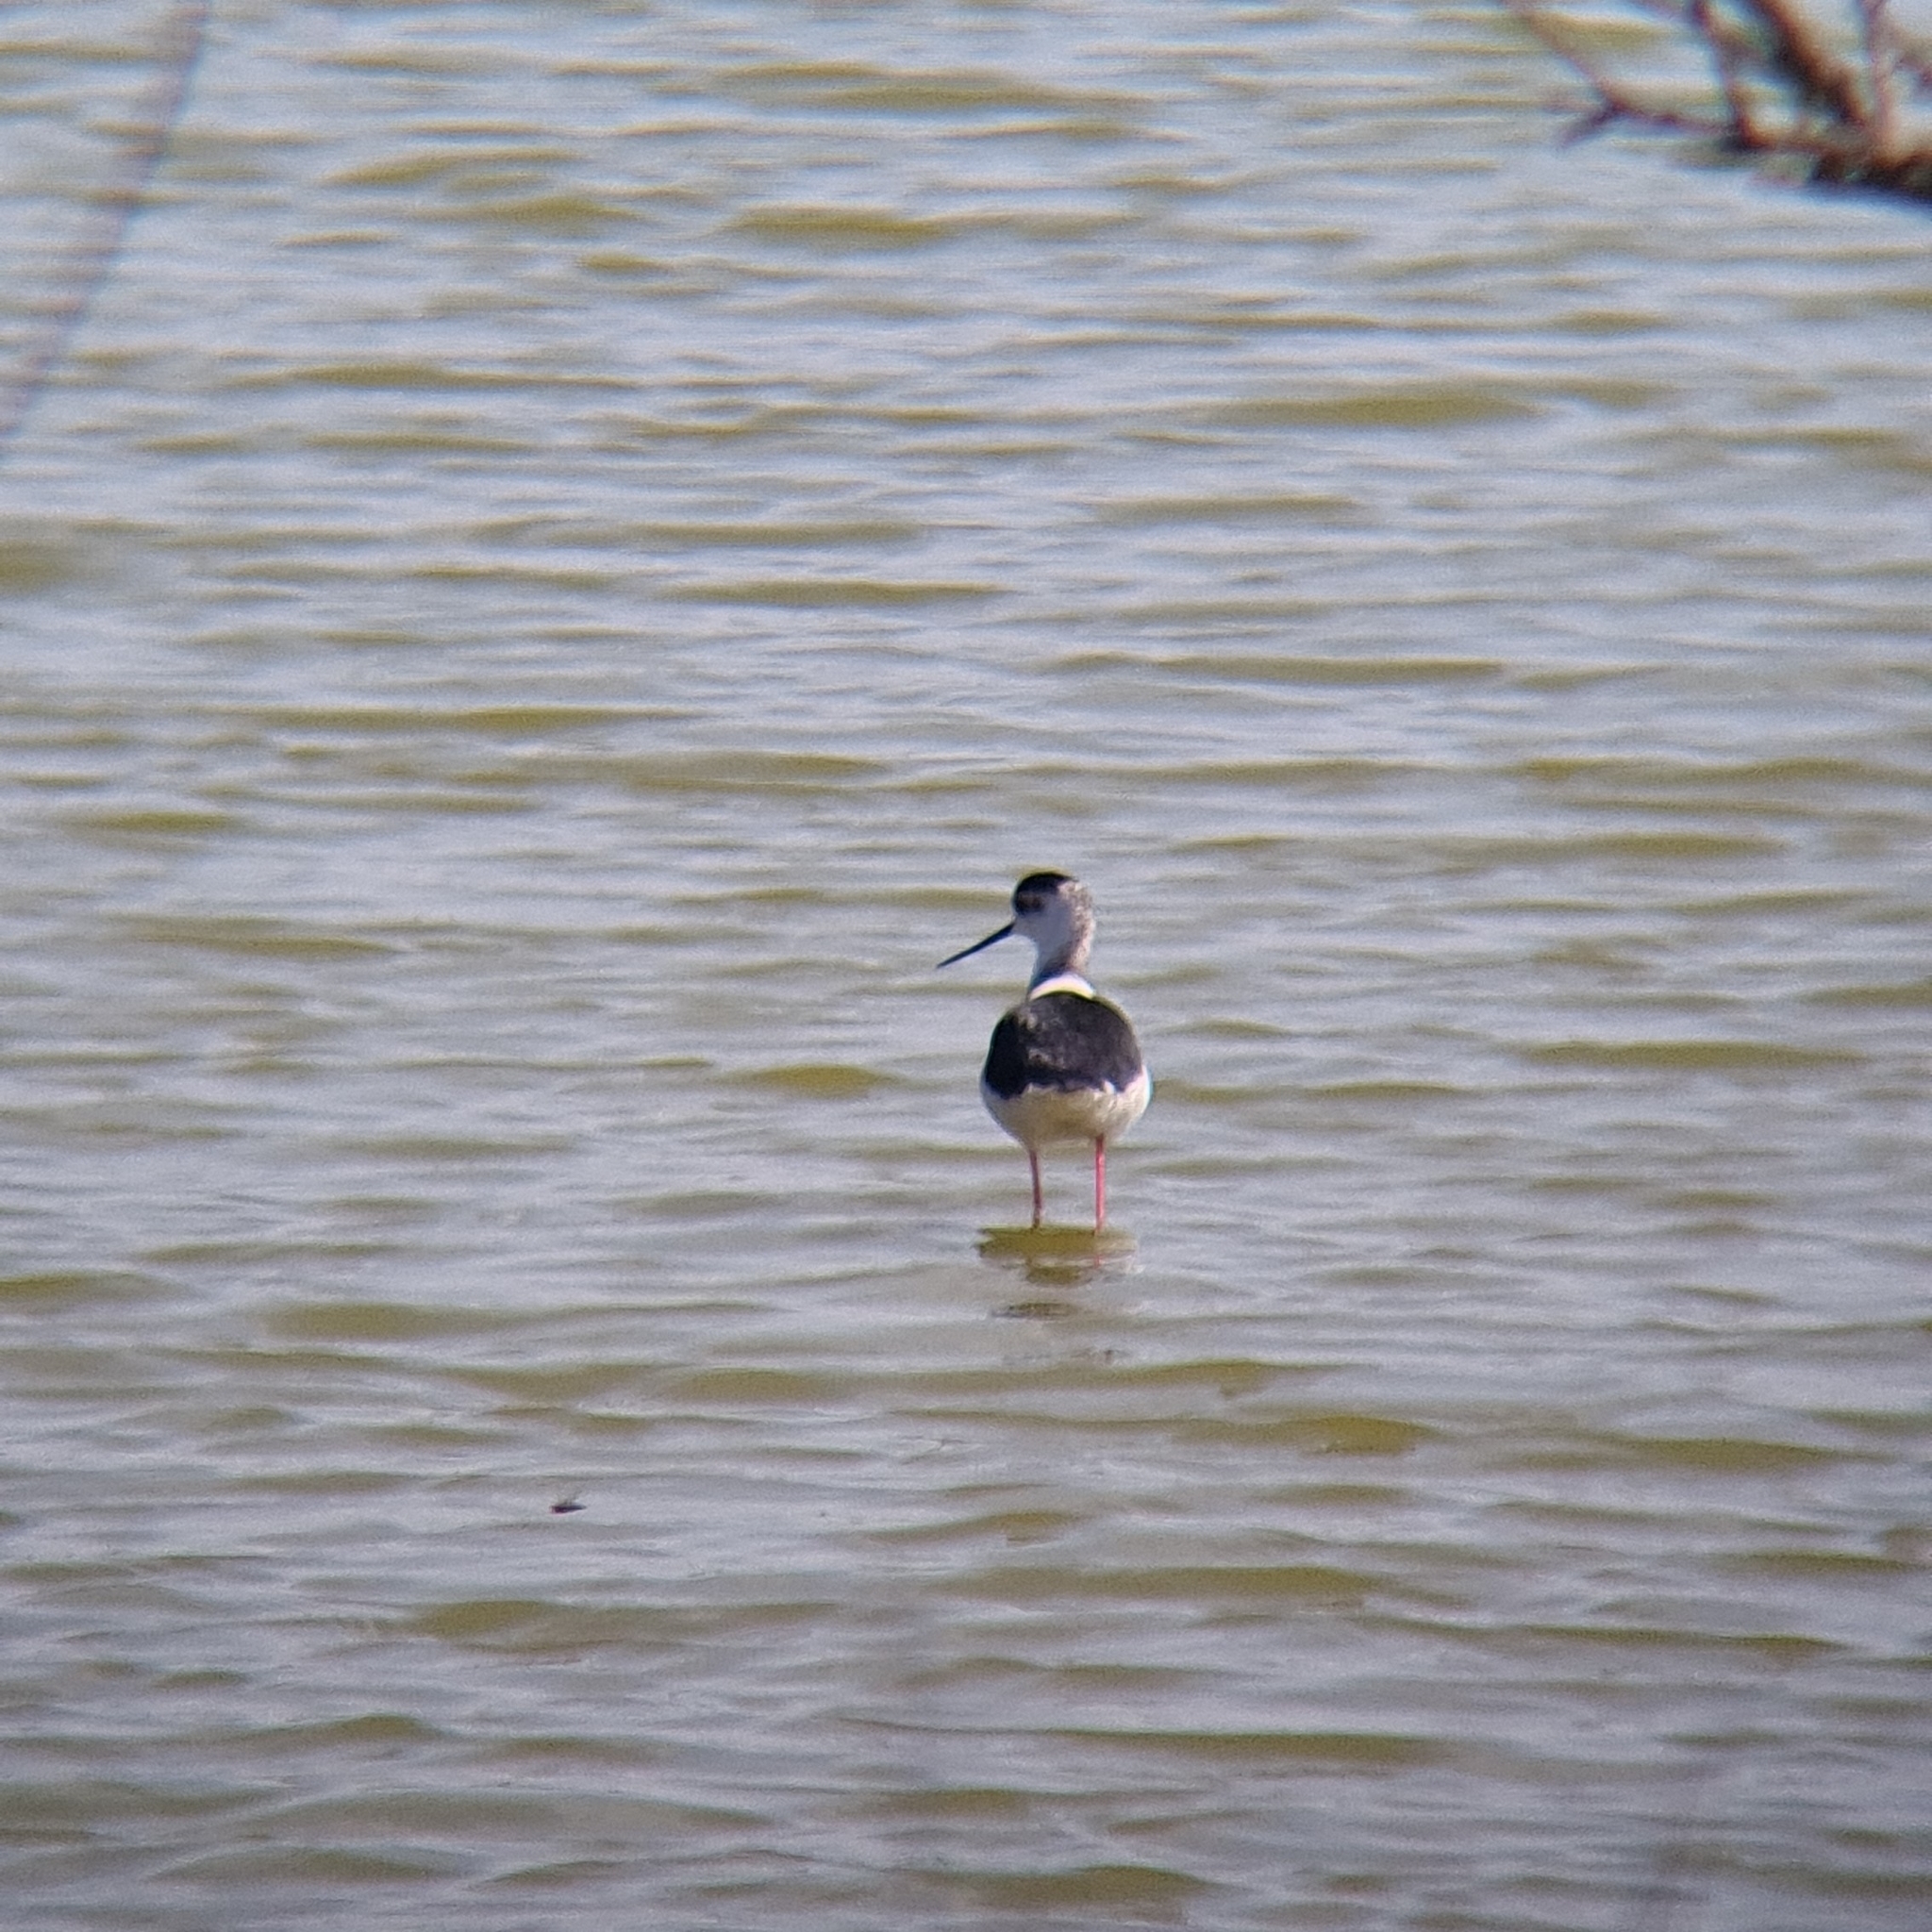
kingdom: Animalia
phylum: Chordata
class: Aves
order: Charadriiformes
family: Recurvirostridae
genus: Himantopus
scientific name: Himantopus himantopus
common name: Black-winged stilt
